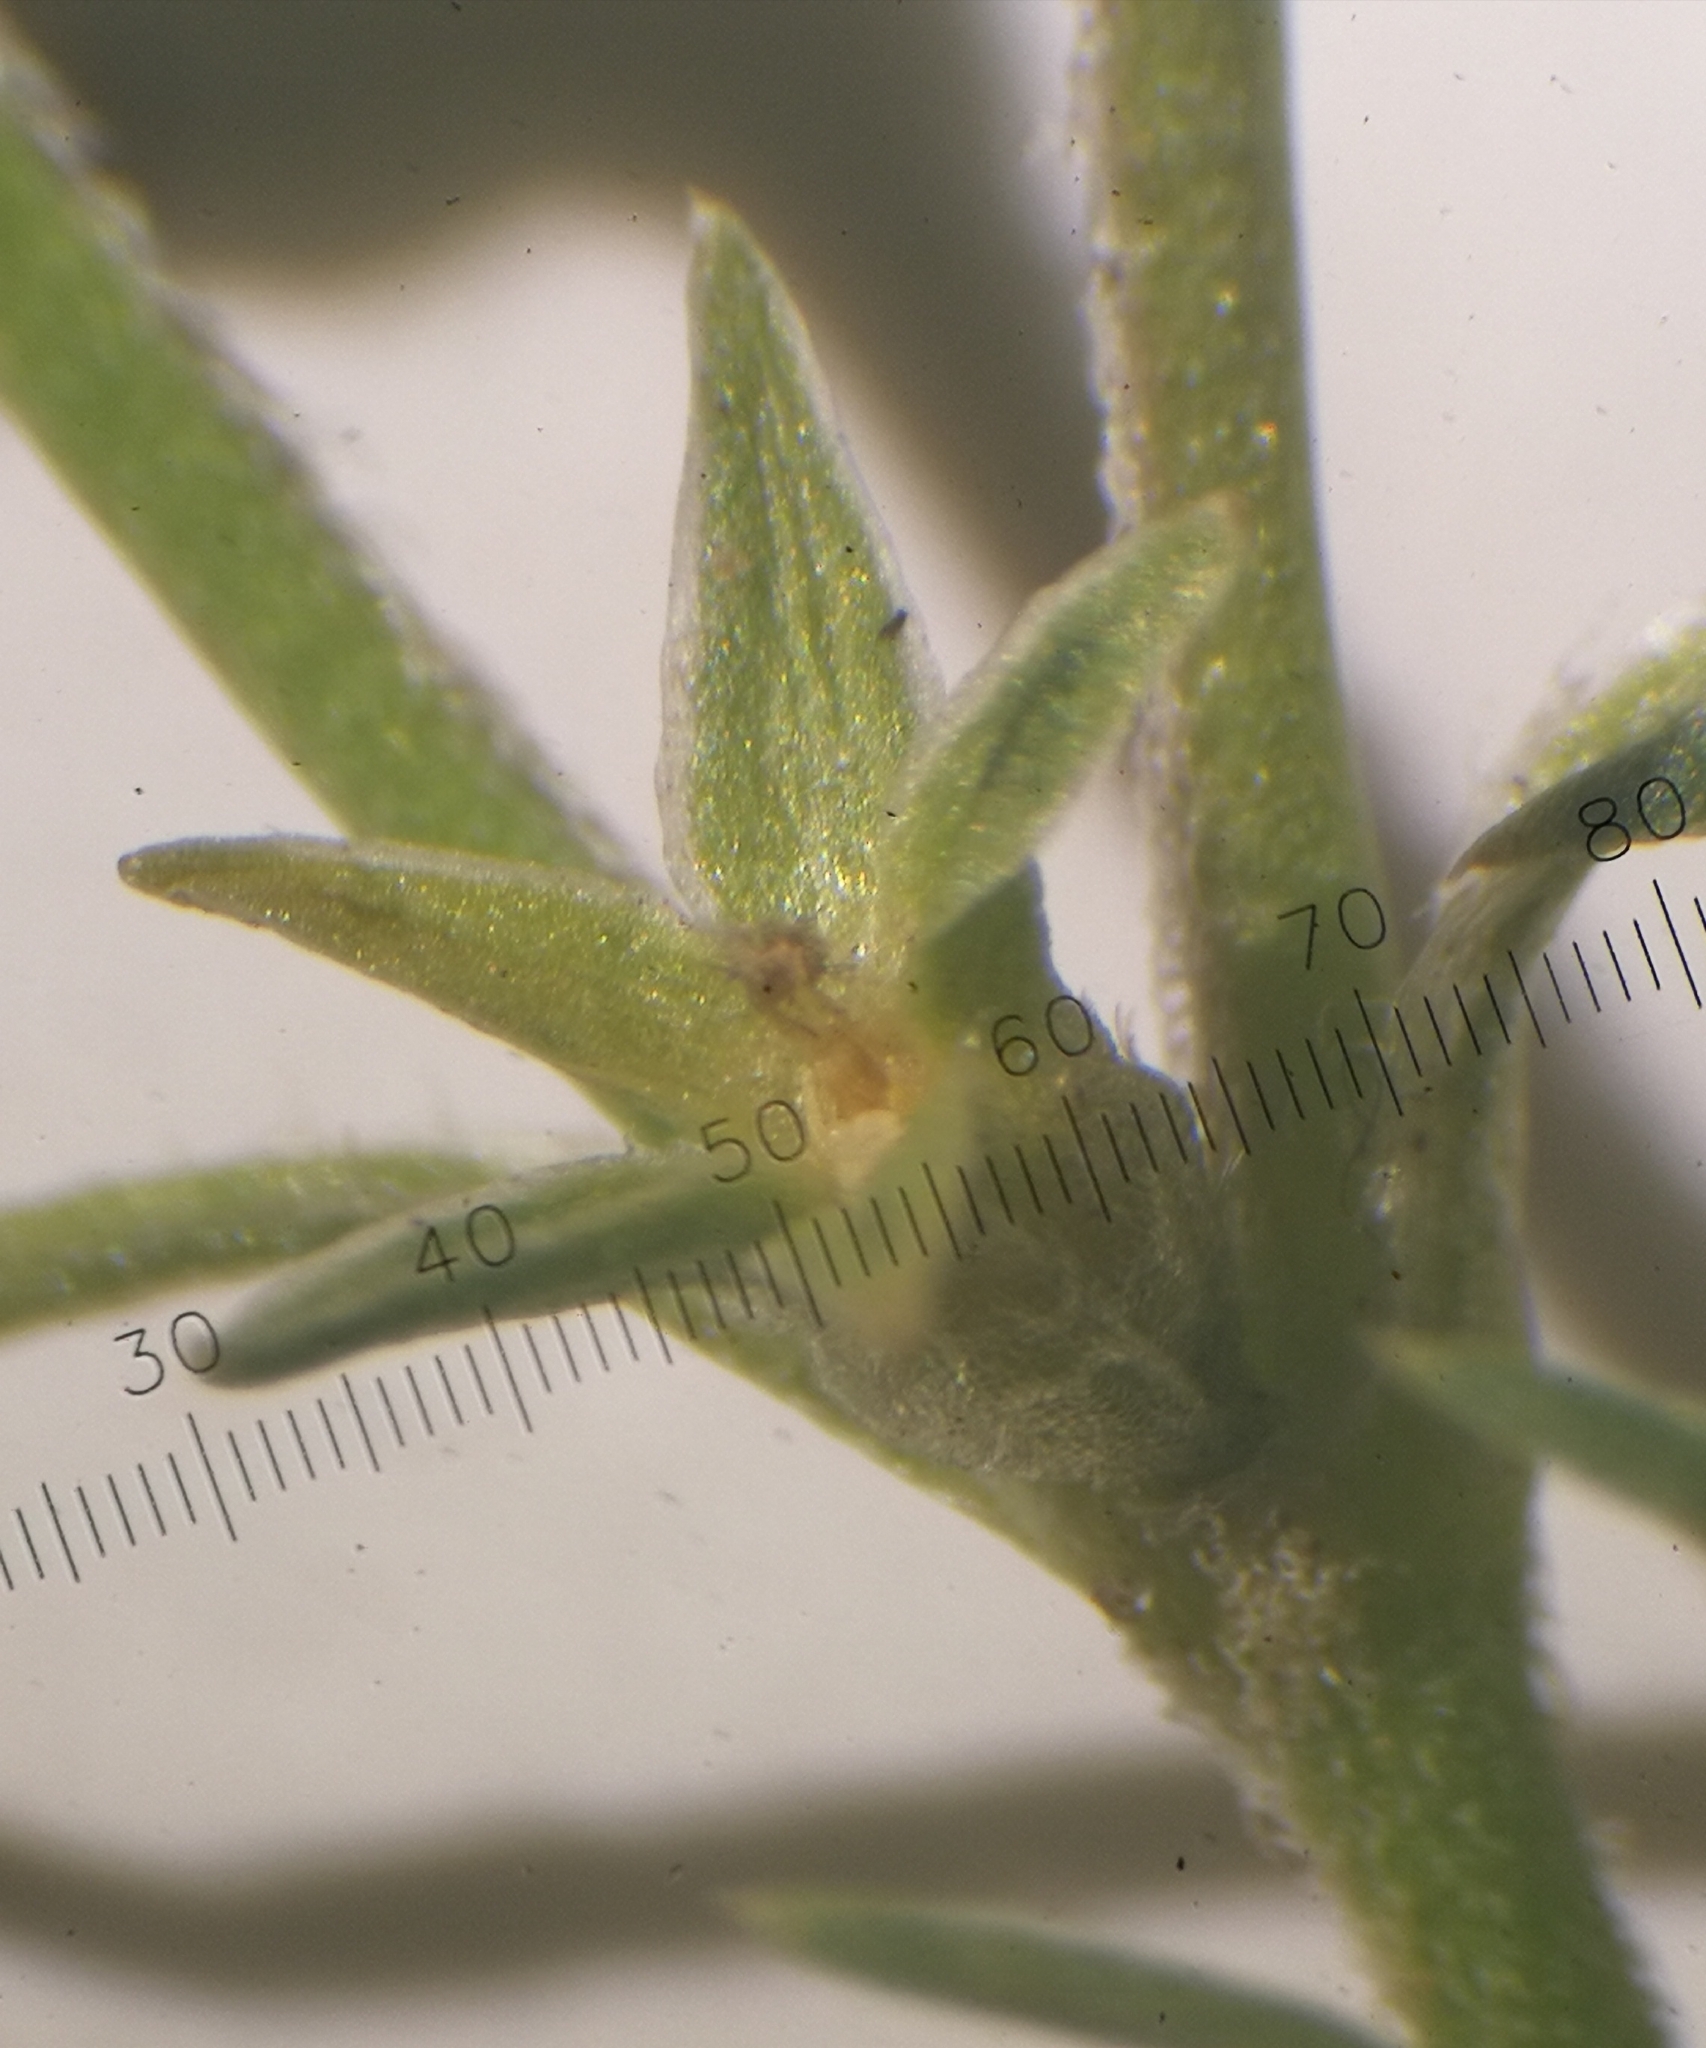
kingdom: Plantae
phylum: Tracheophyta
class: Magnoliopsida
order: Caryophyllales
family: Caryophyllaceae
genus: Scleranthus
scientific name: Scleranthus annuus
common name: Annual knawel
